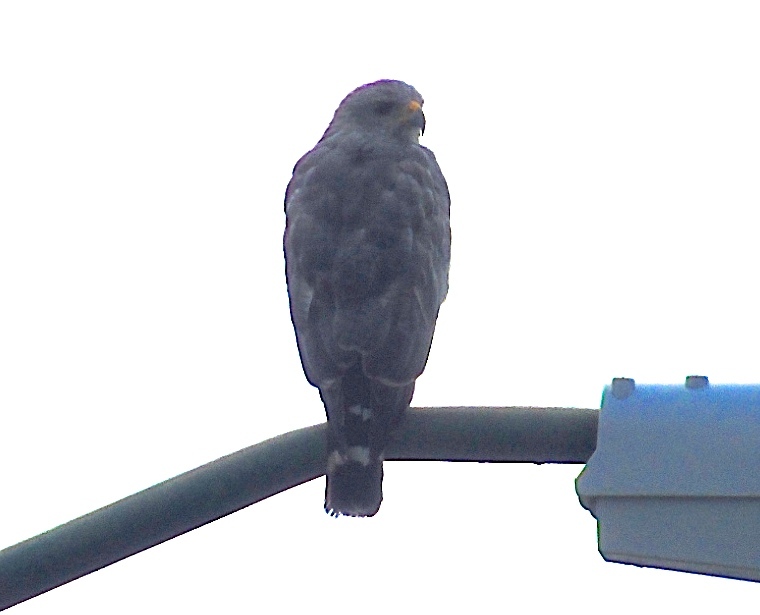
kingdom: Animalia
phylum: Chordata
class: Aves
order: Accipitriformes
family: Accipitridae
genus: Buteo
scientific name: Buteo nitidus
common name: Grey-lined hawk
